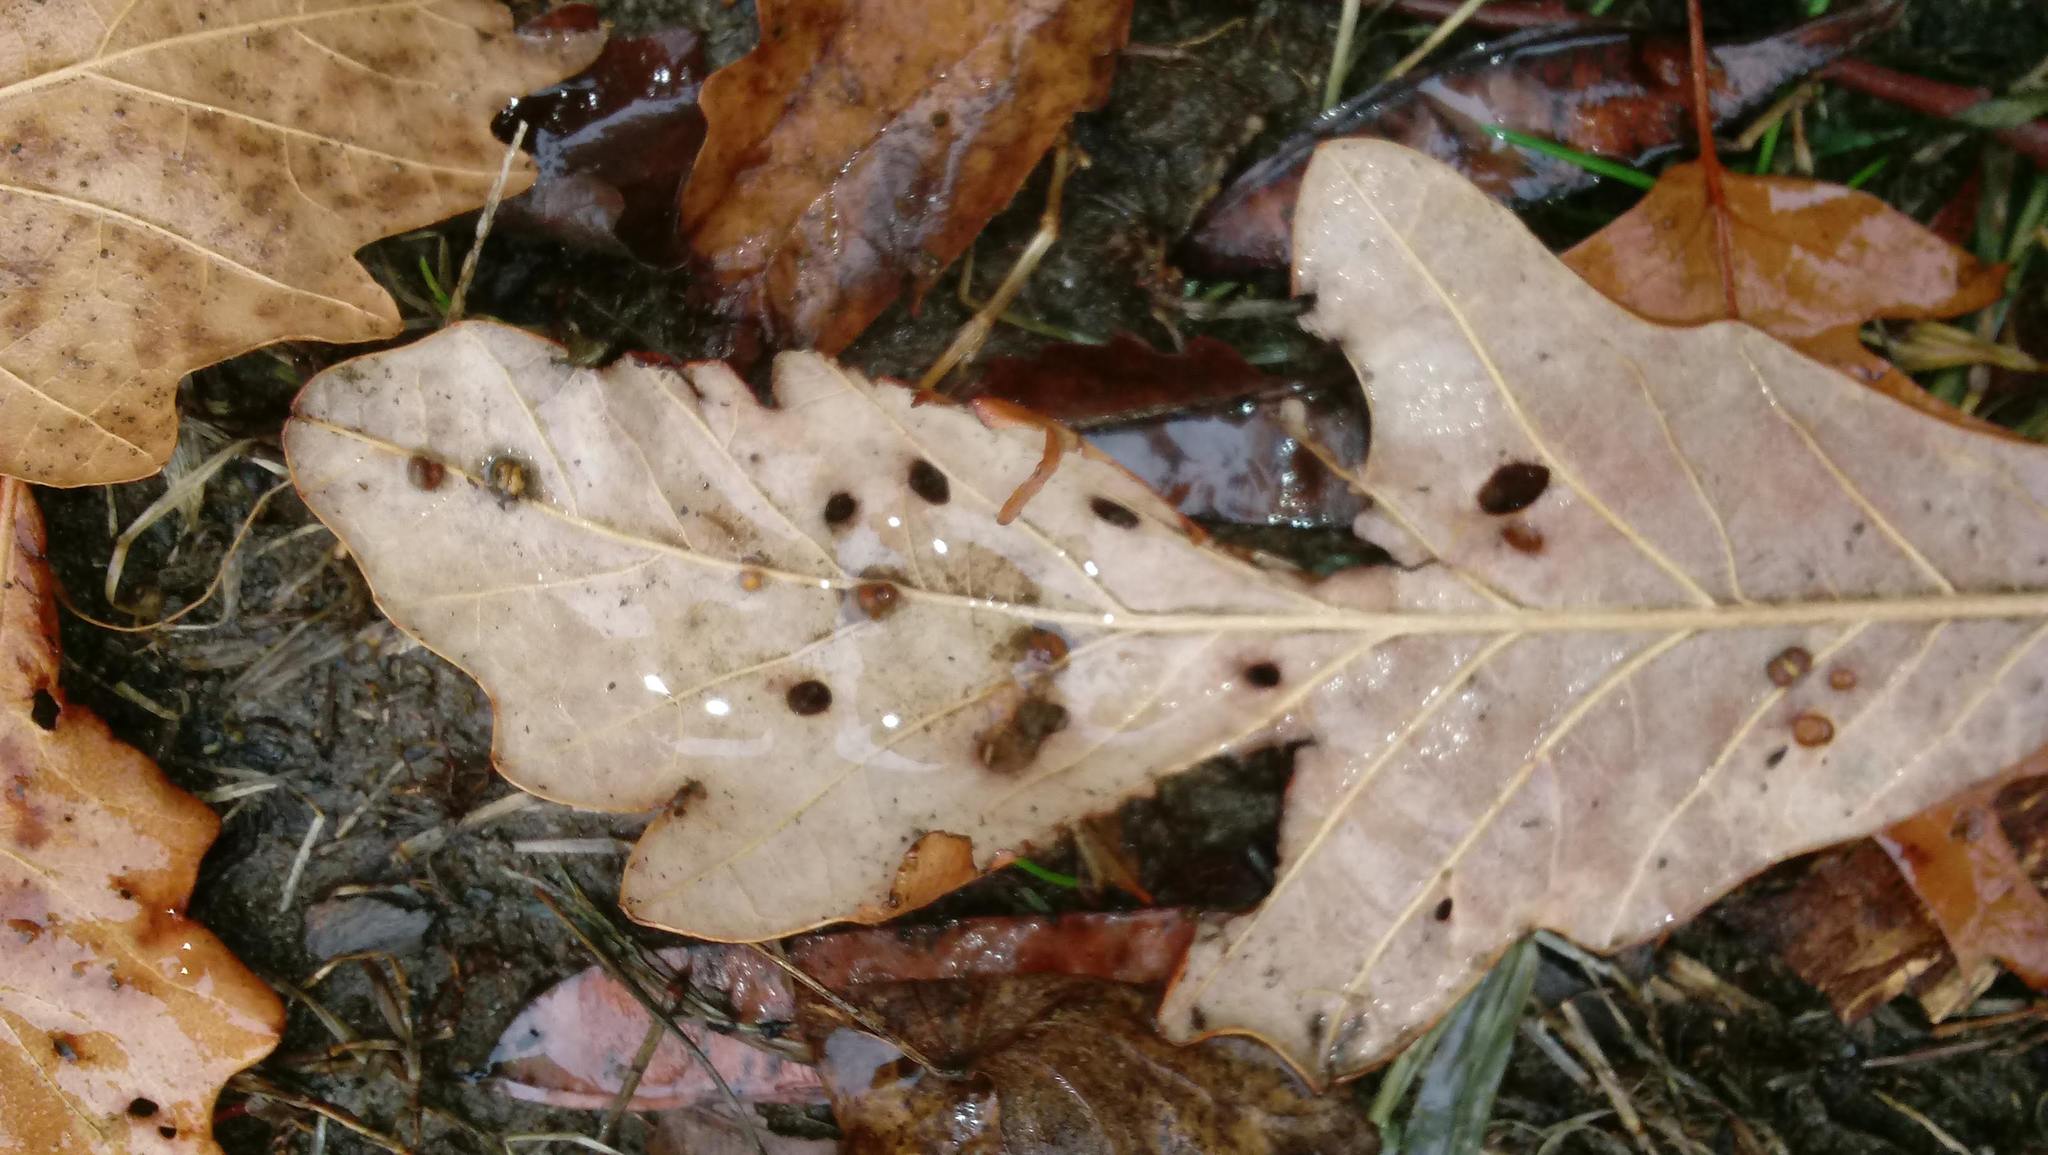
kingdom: Animalia
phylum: Arthropoda
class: Insecta
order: Hymenoptera
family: Cynipidae
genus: Andricus
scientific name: Andricus Druon ignotum
